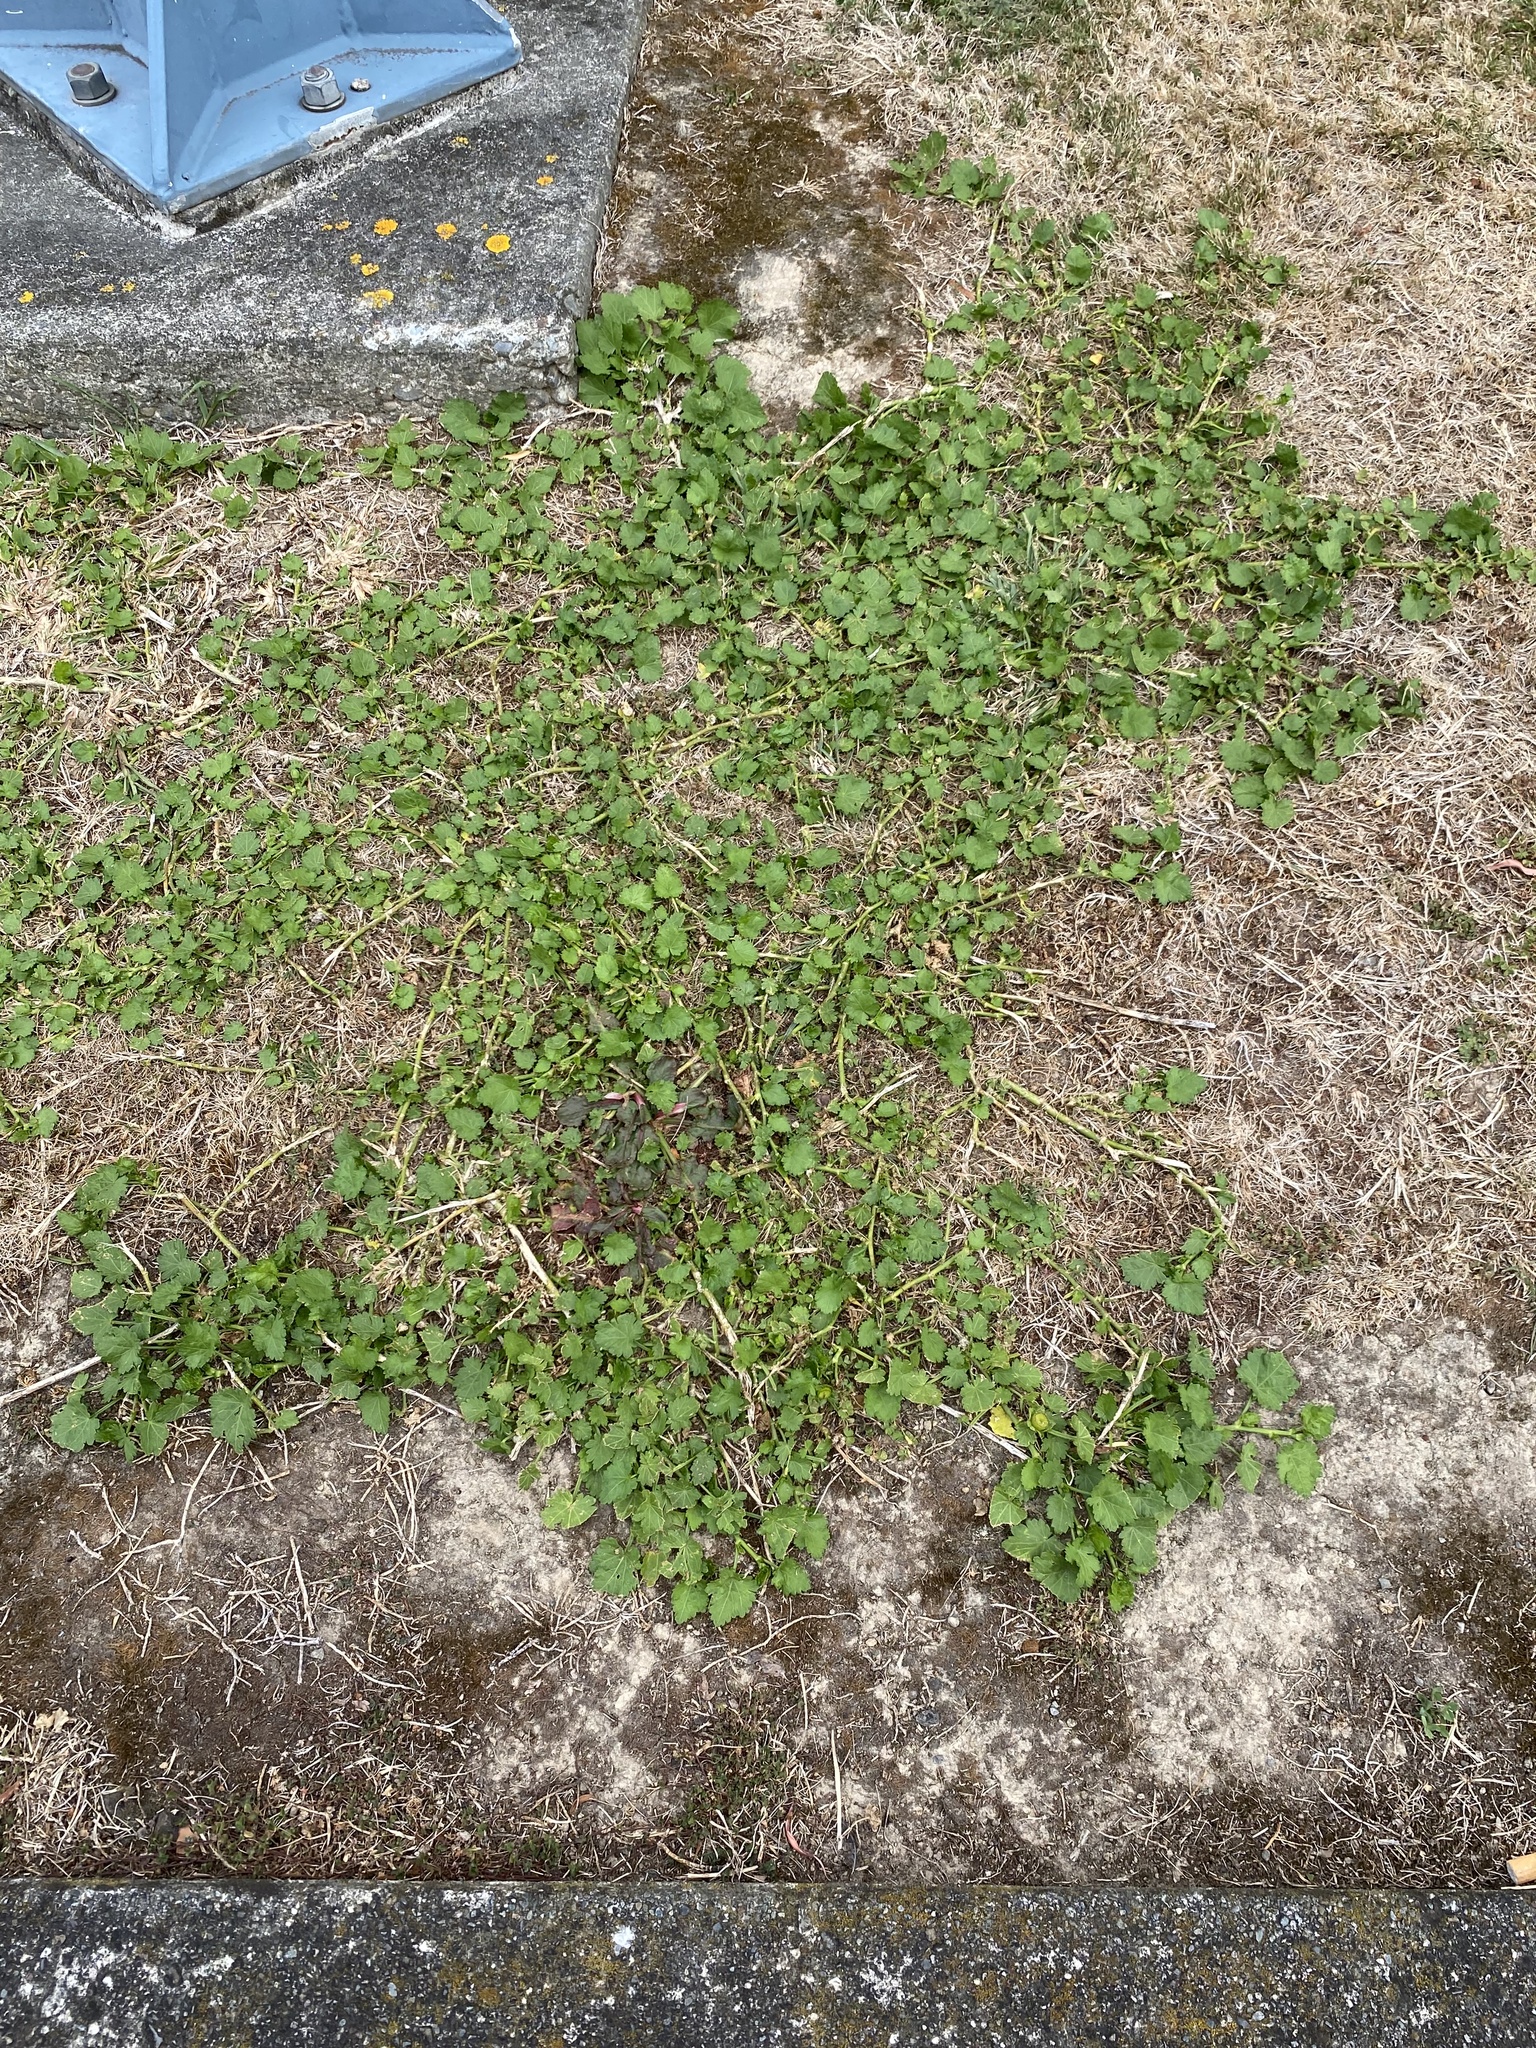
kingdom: Plantae
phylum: Tracheophyta
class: Magnoliopsida
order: Malvales
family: Malvaceae
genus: Modiola
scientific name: Modiola caroliniana
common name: Carolina bristlemallow
